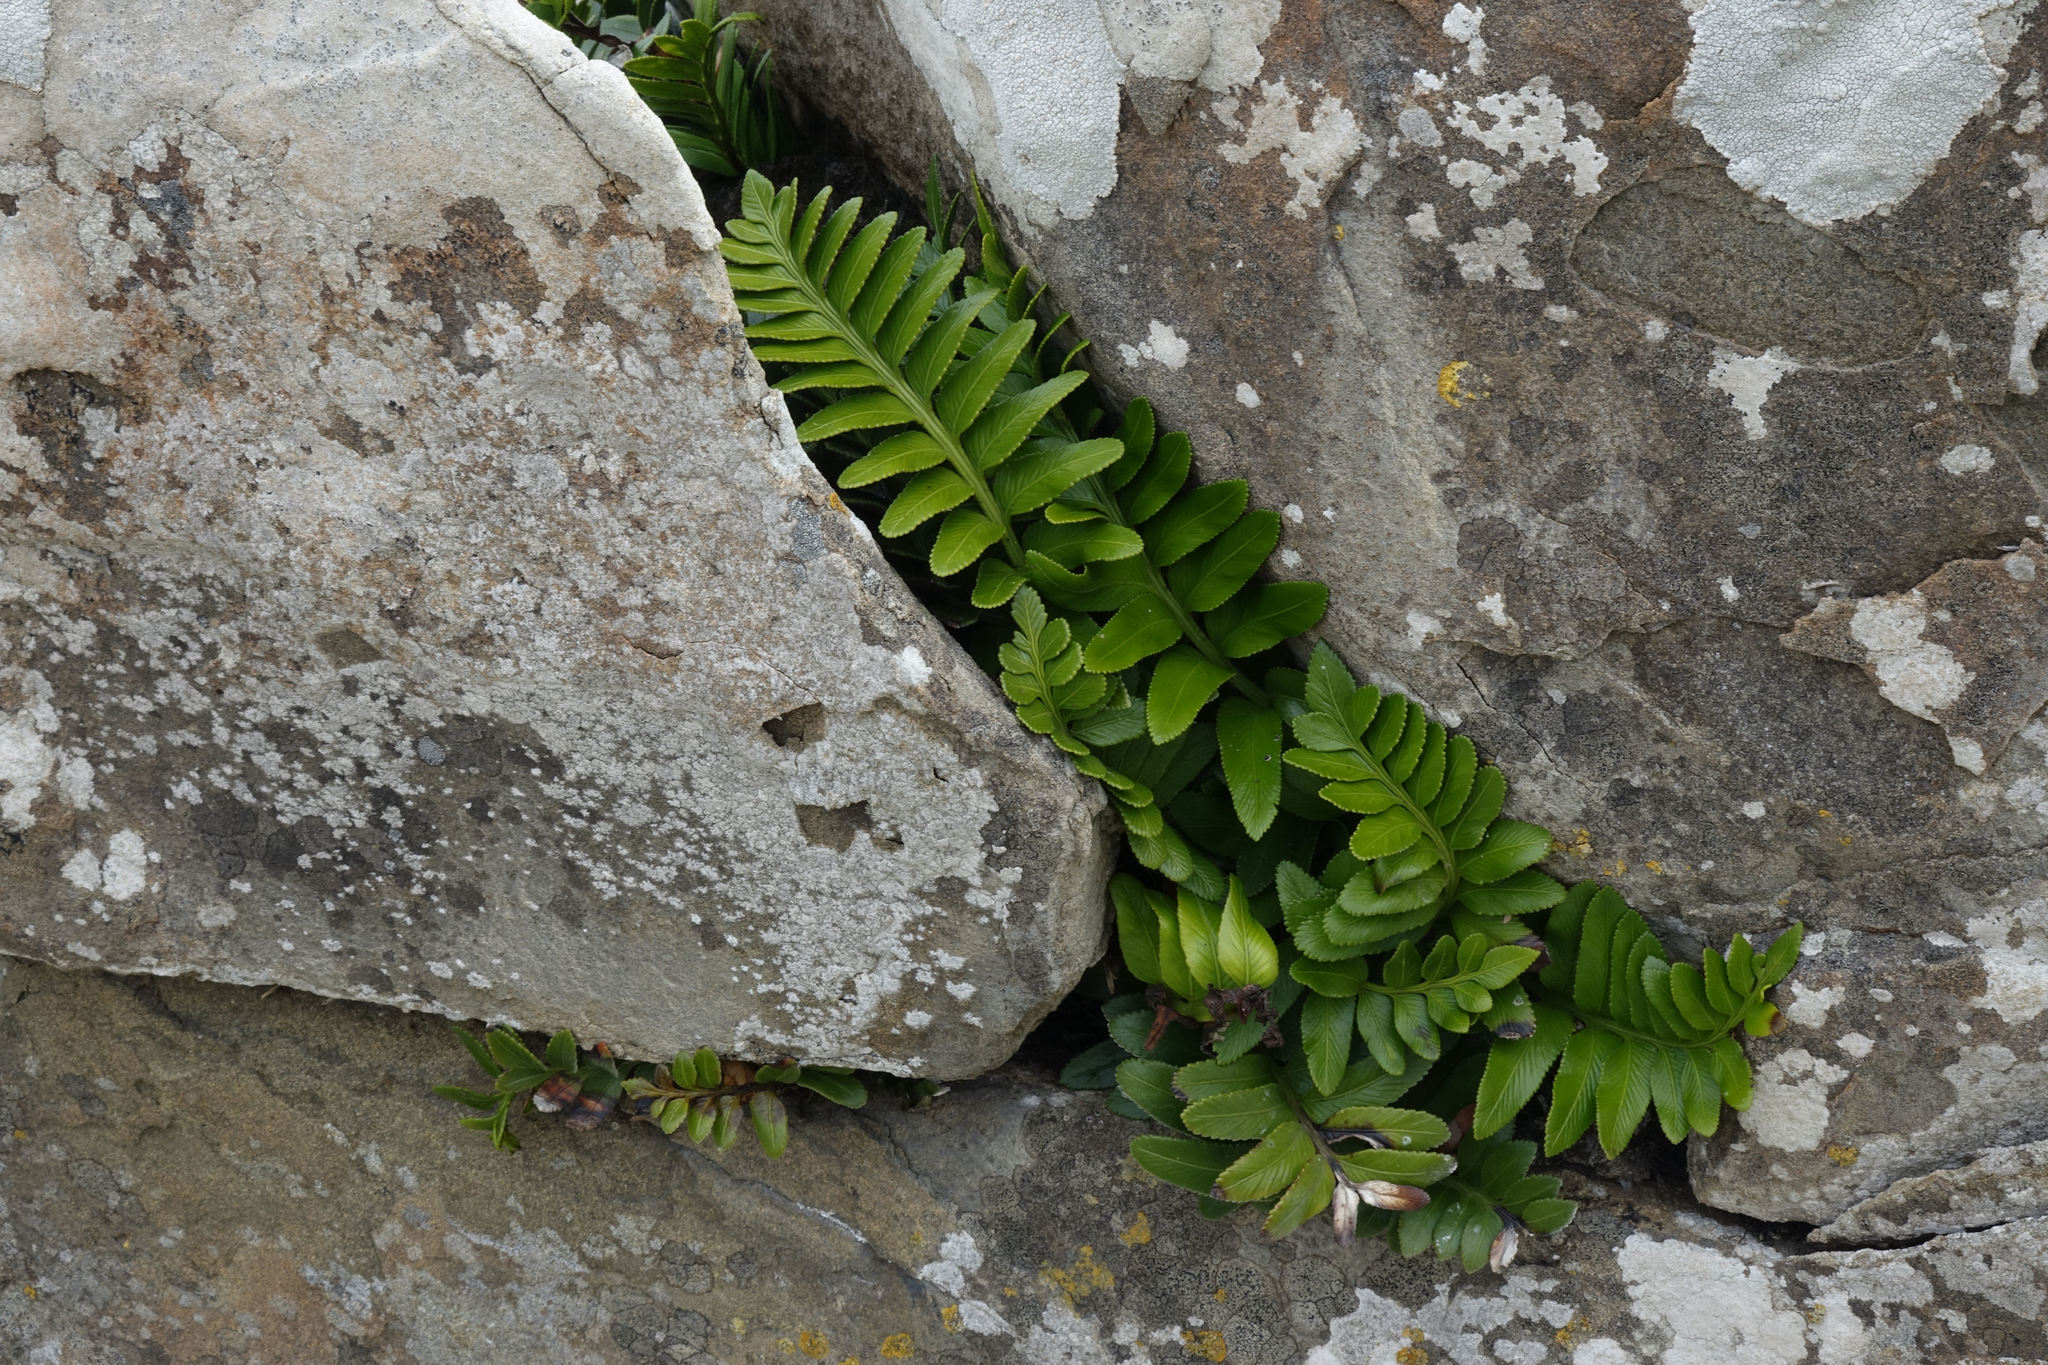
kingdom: Plantae
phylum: Tracheophyta
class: Polypodiopsida
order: Polypodiales
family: Aspleniaceae
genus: Asplenium
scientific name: Asplenium obtusatum
